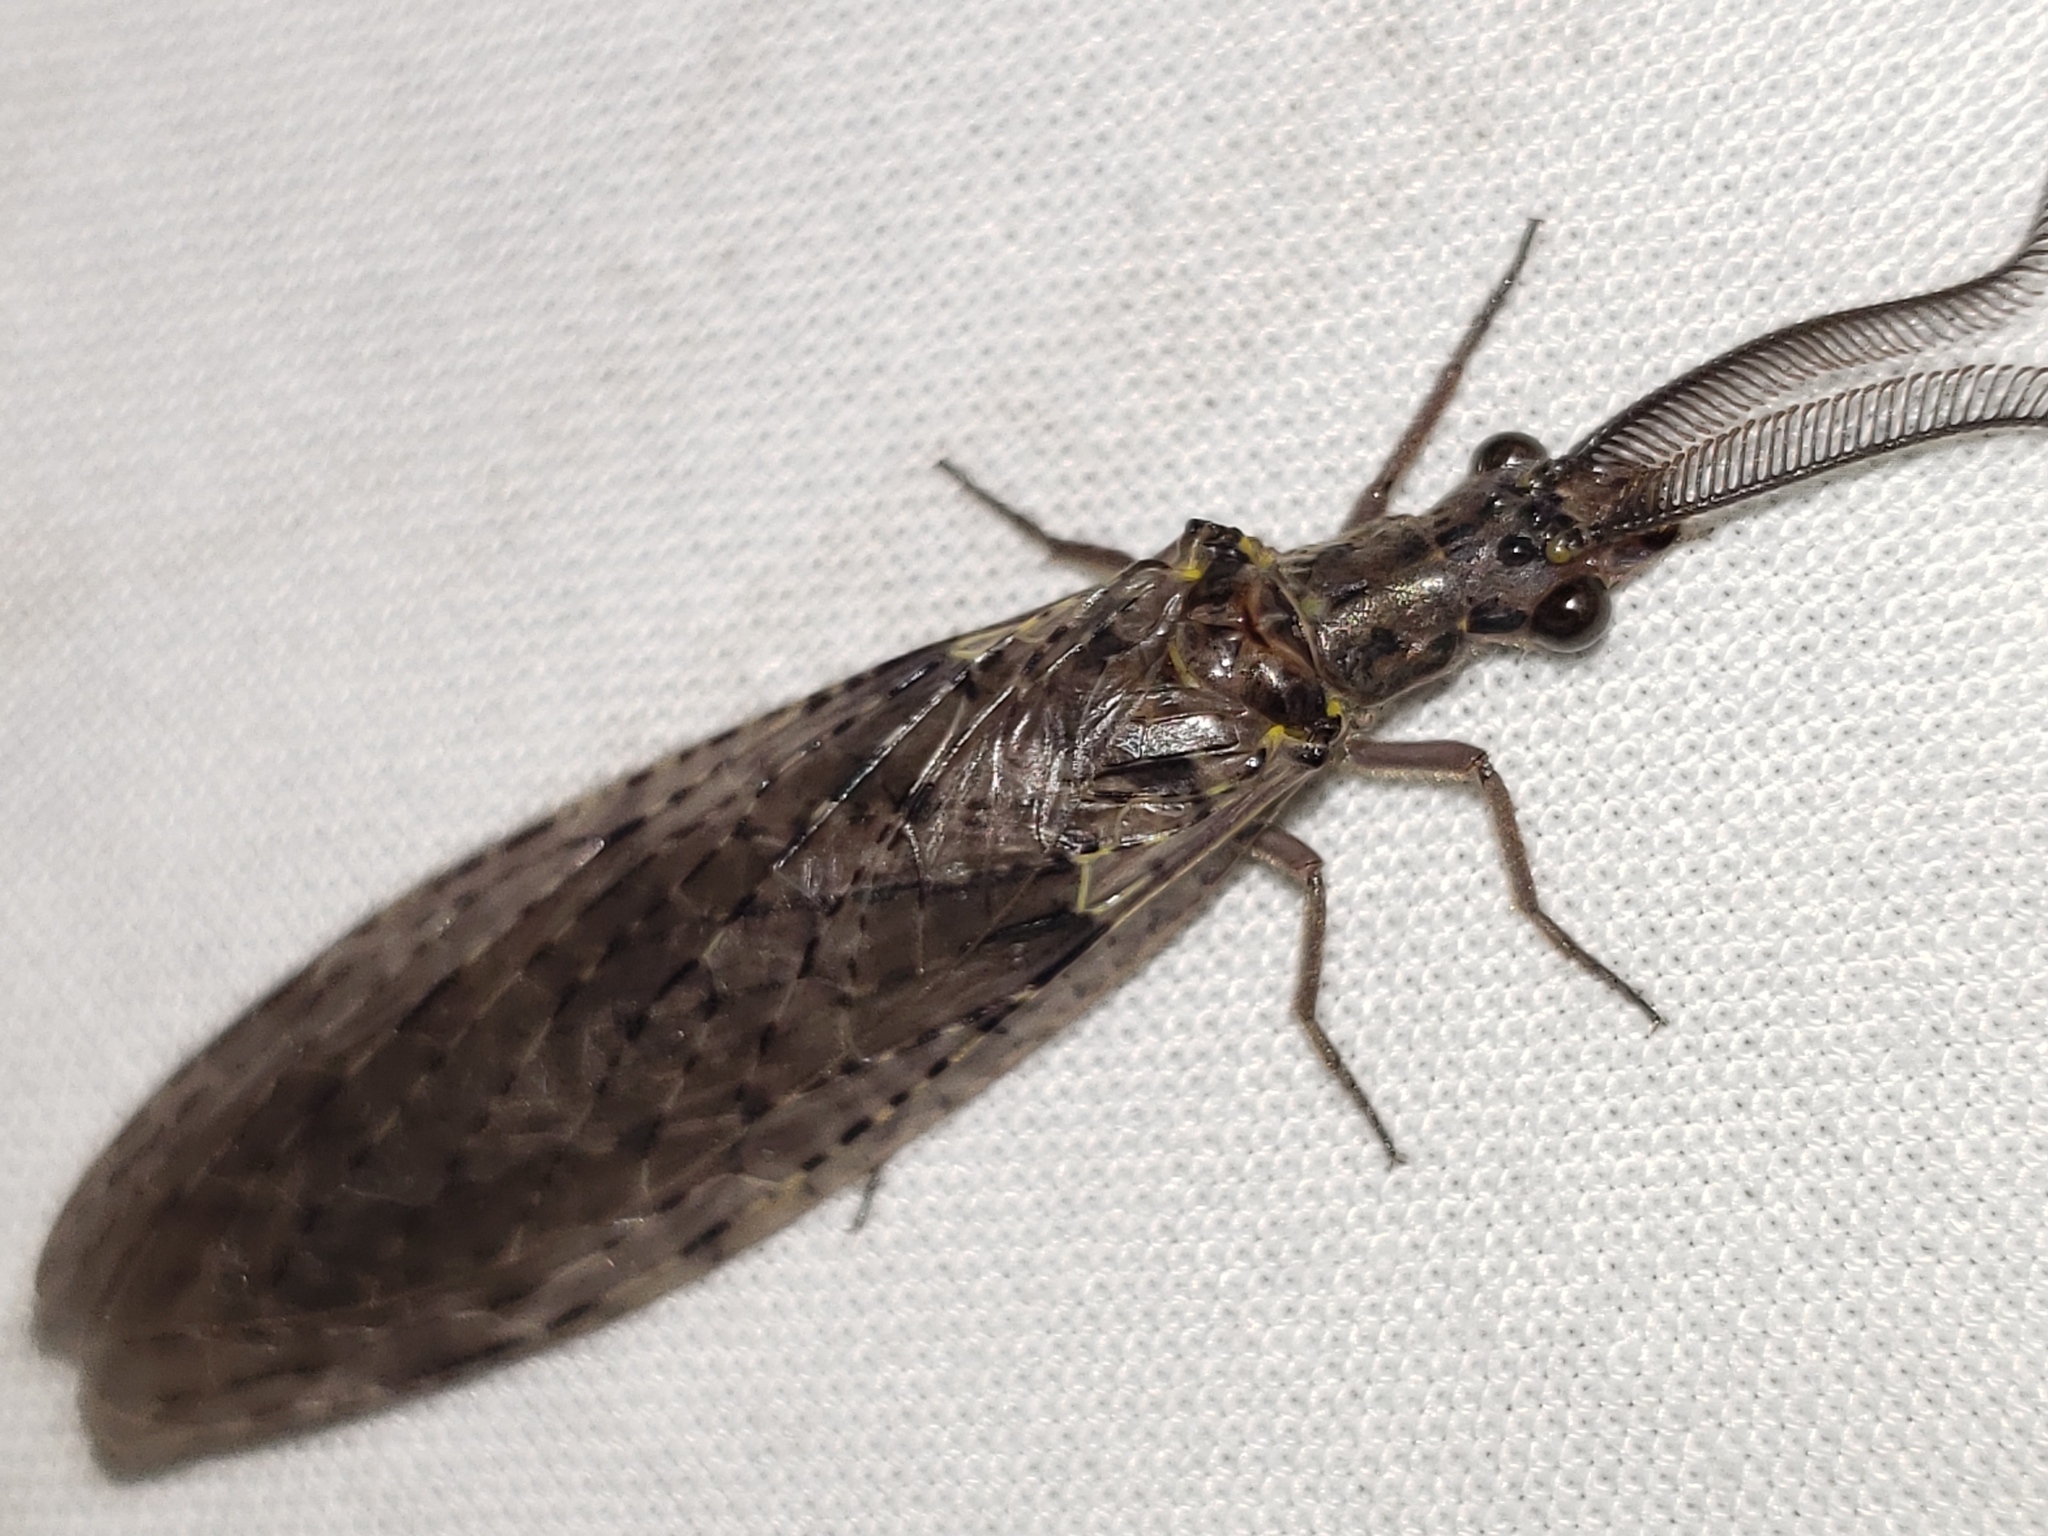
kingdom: Animalia
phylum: Arthropoda
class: Insecta
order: Megaloptera
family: Corydalidae
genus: Chauliodes
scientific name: Chauliodes rastricornis
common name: Spring fishfly
